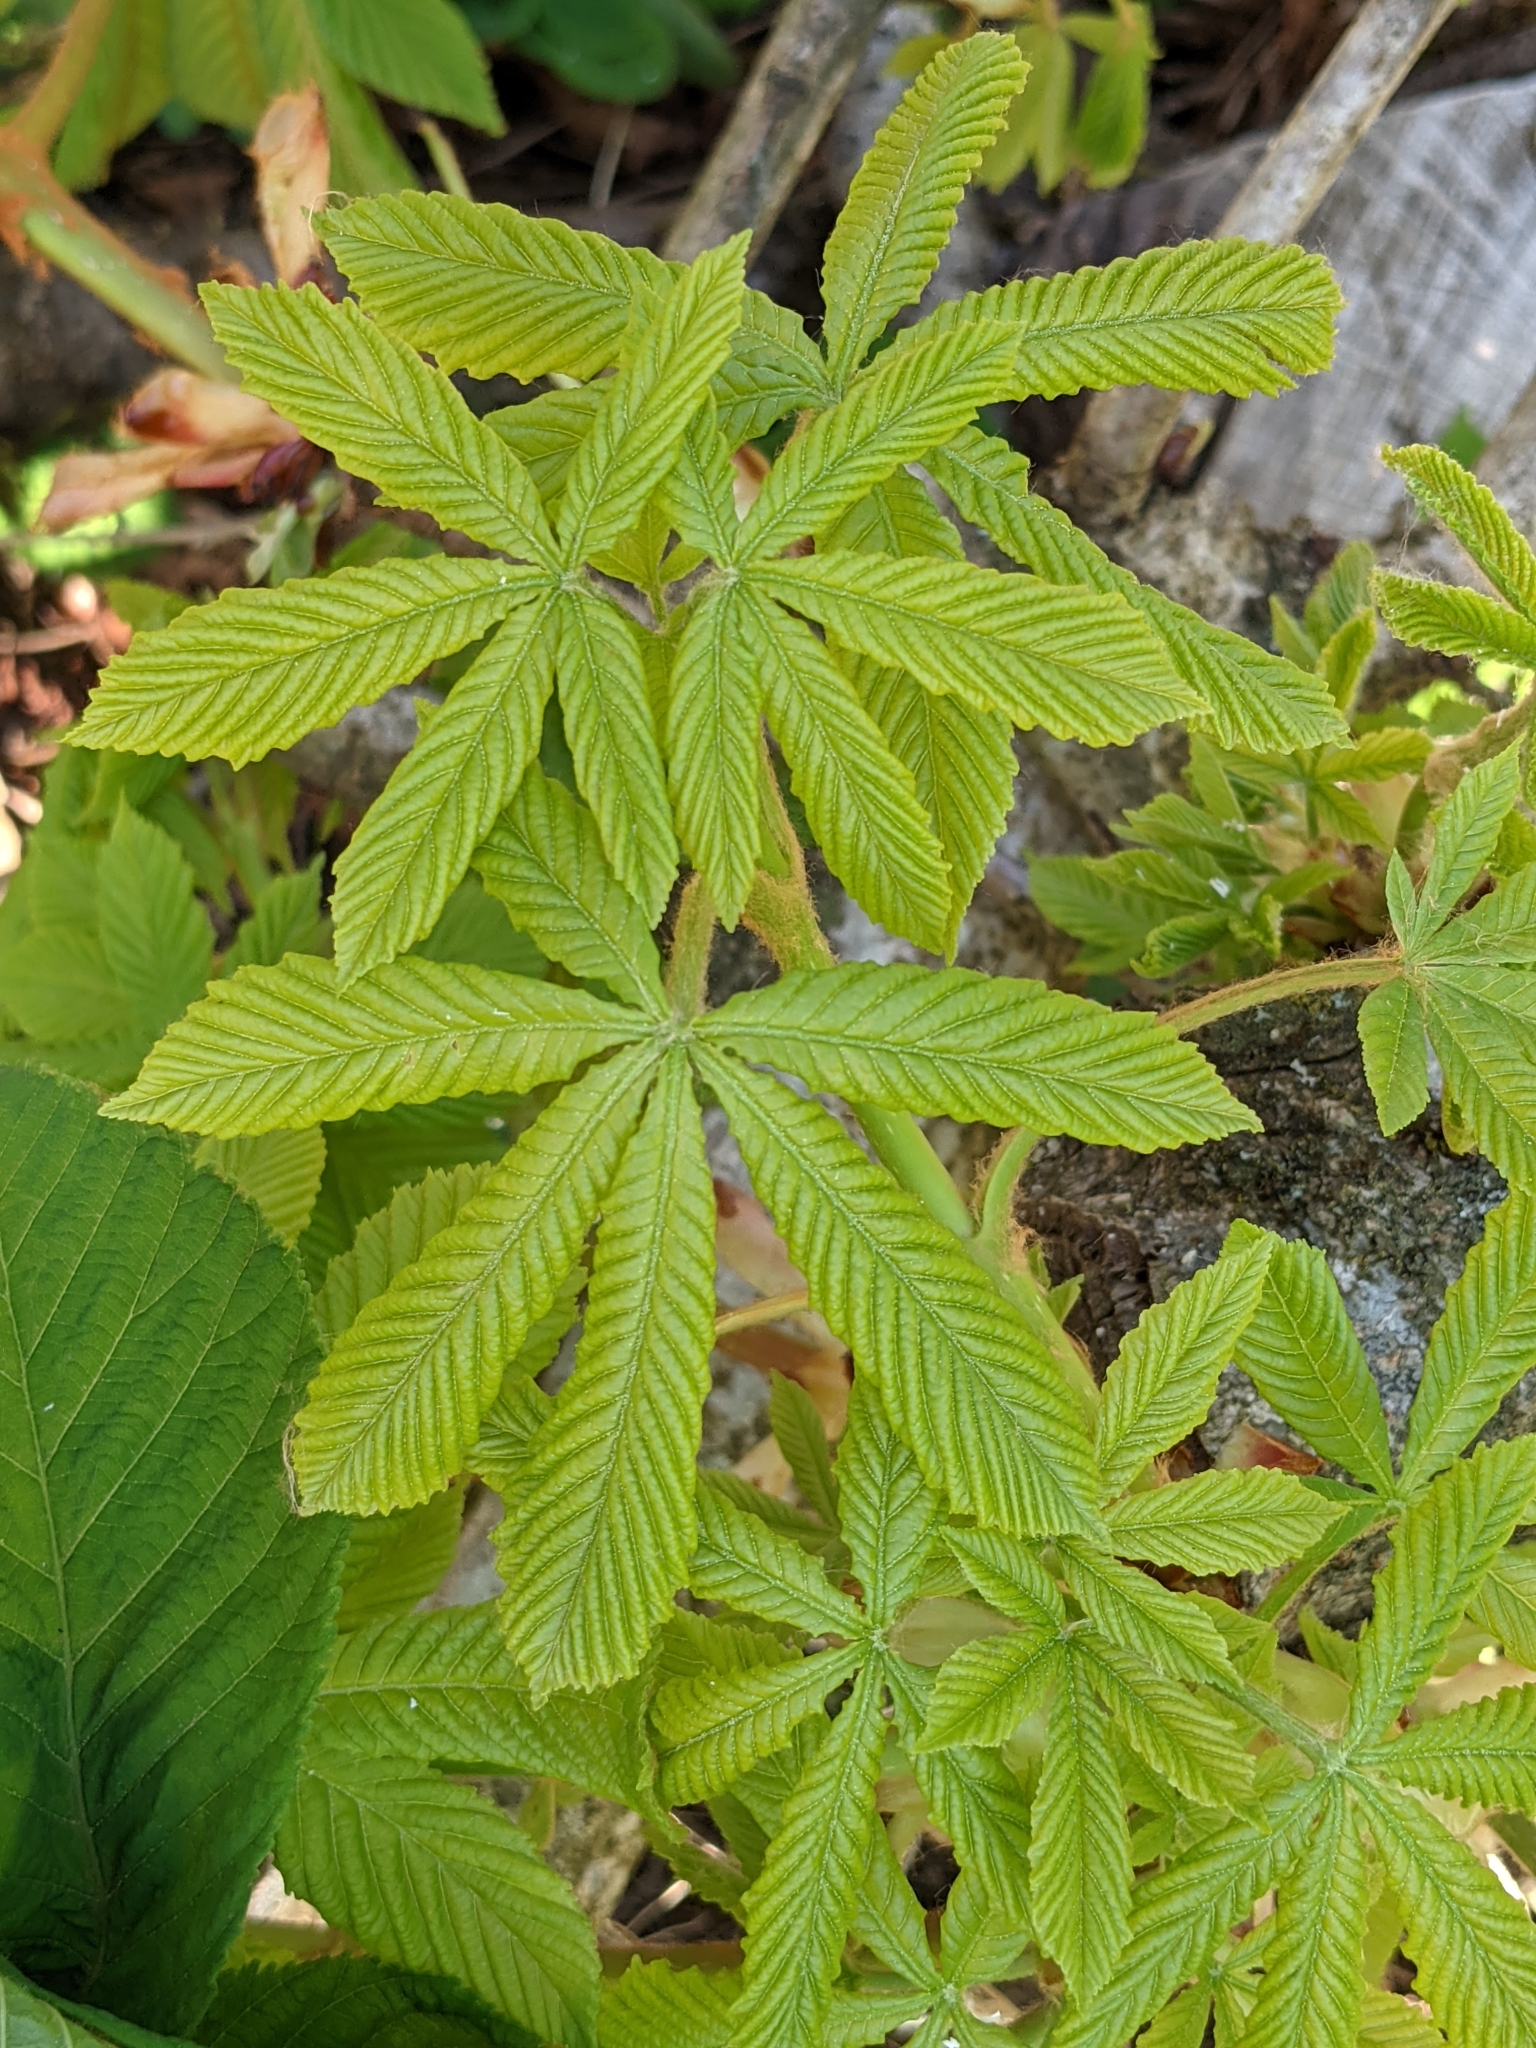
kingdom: Plantae
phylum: Tracheophyta
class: Magnoliopsida
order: Sapindales
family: Sapindaceae
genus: Aesculus
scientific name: Aesculus hippocastanum
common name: Horse-chestnut
